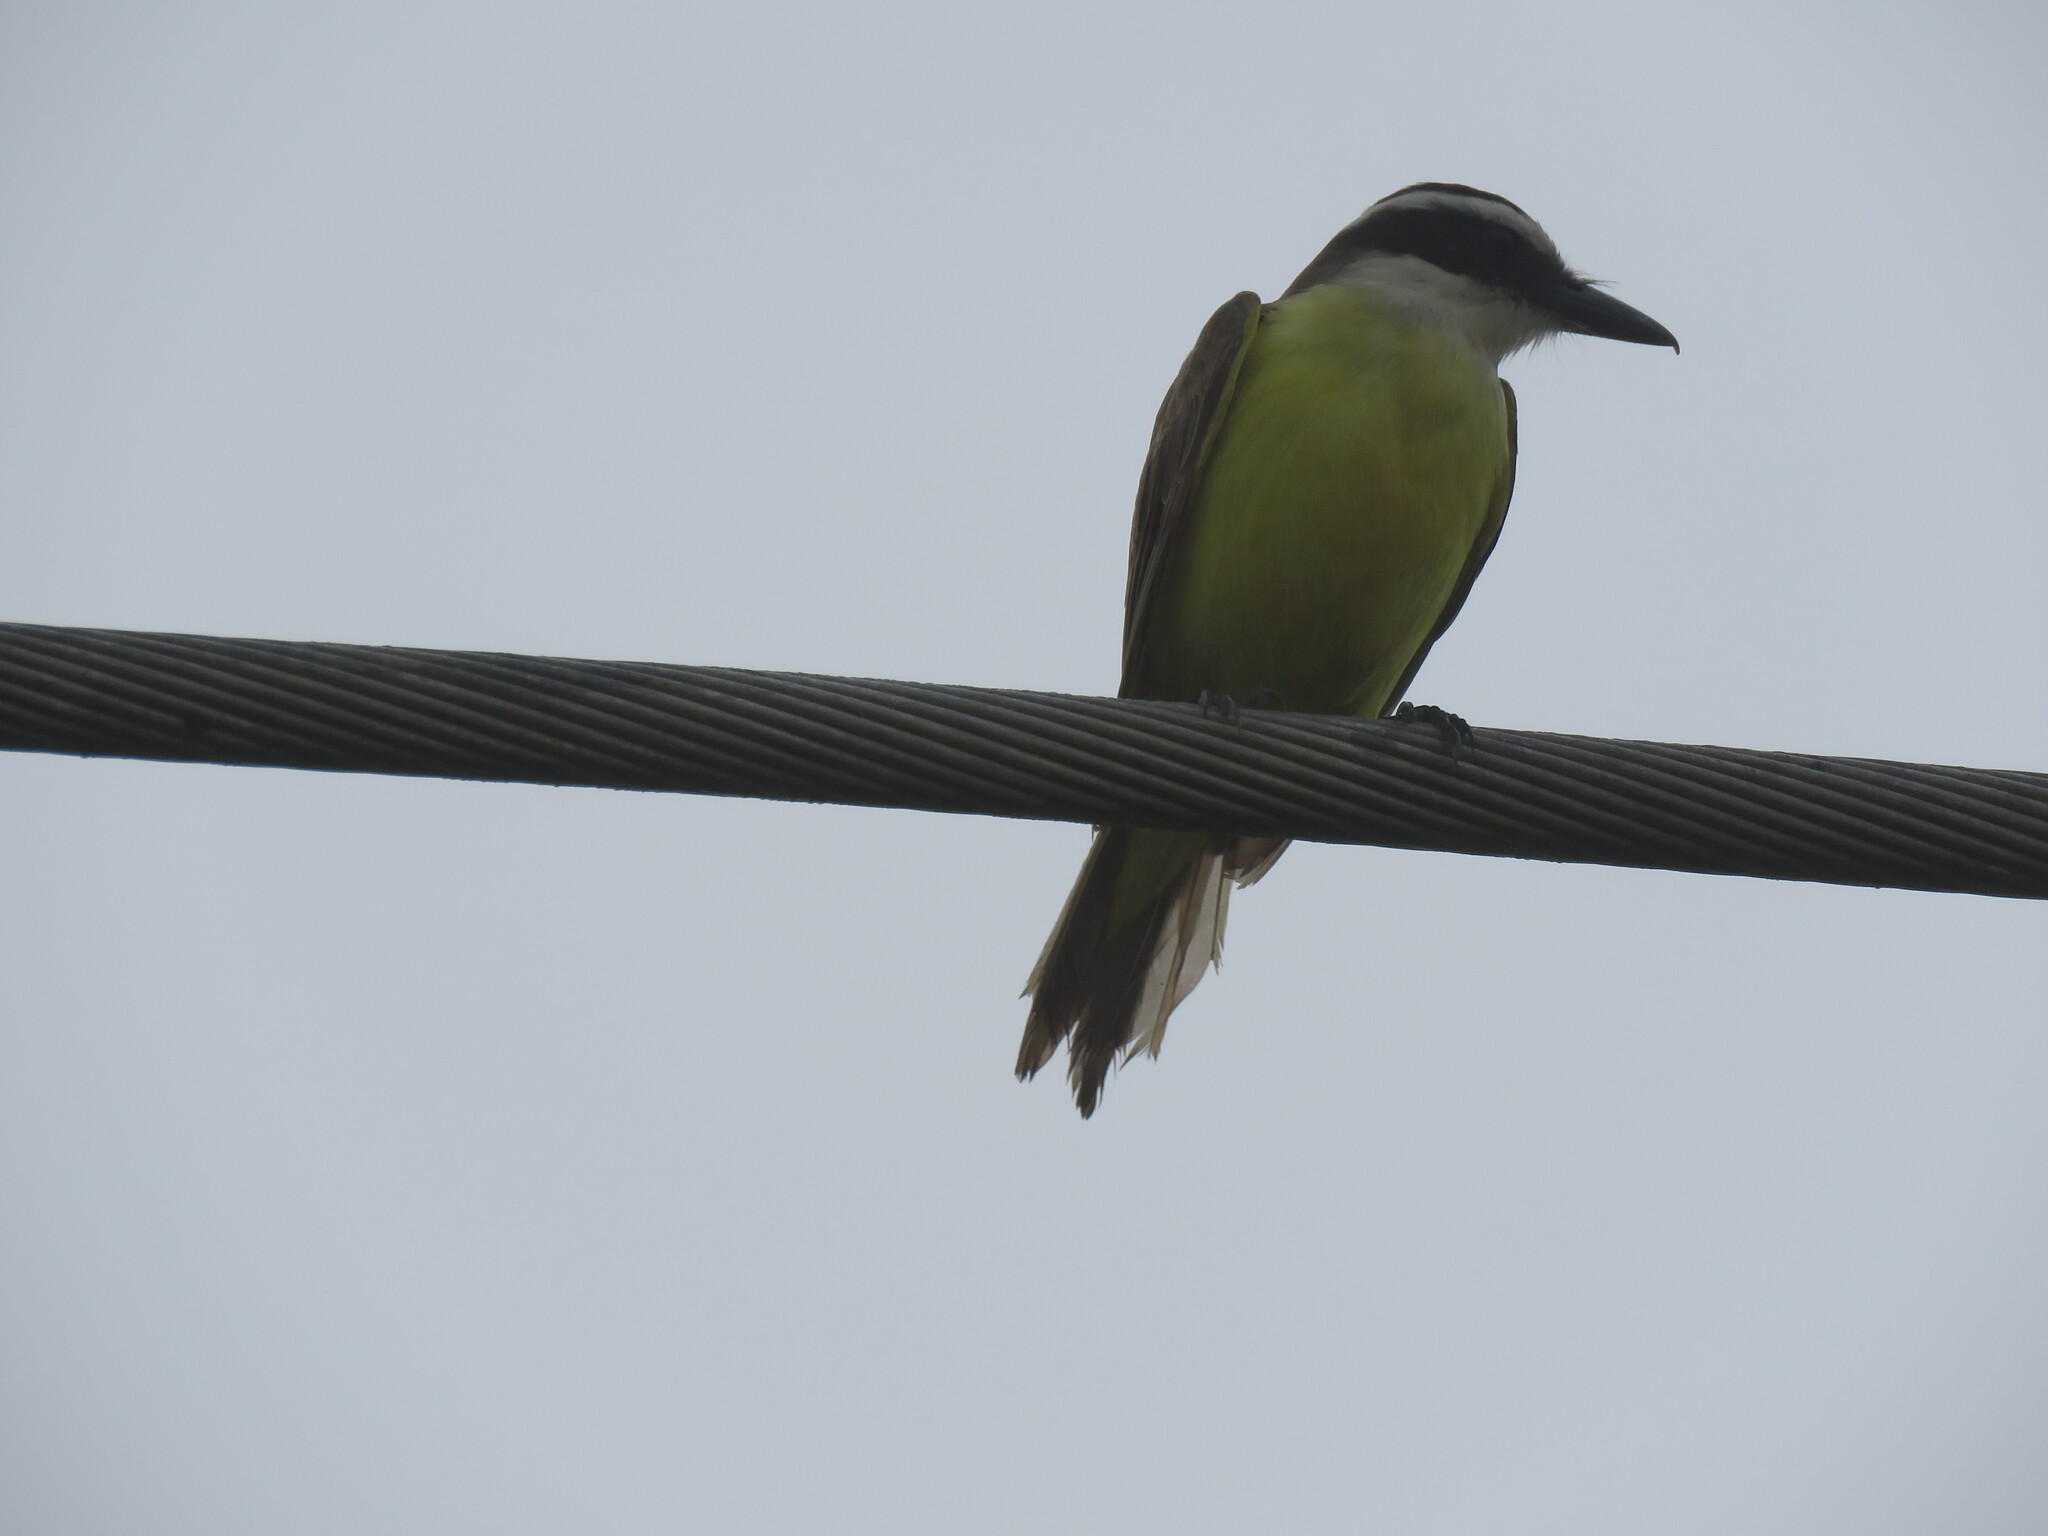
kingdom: Animalia
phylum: Chordata
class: Aves
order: Passeriformes
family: Tyrannidae
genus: Pitangus
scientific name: Pitangus sulphuratus
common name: Great kiskadee
